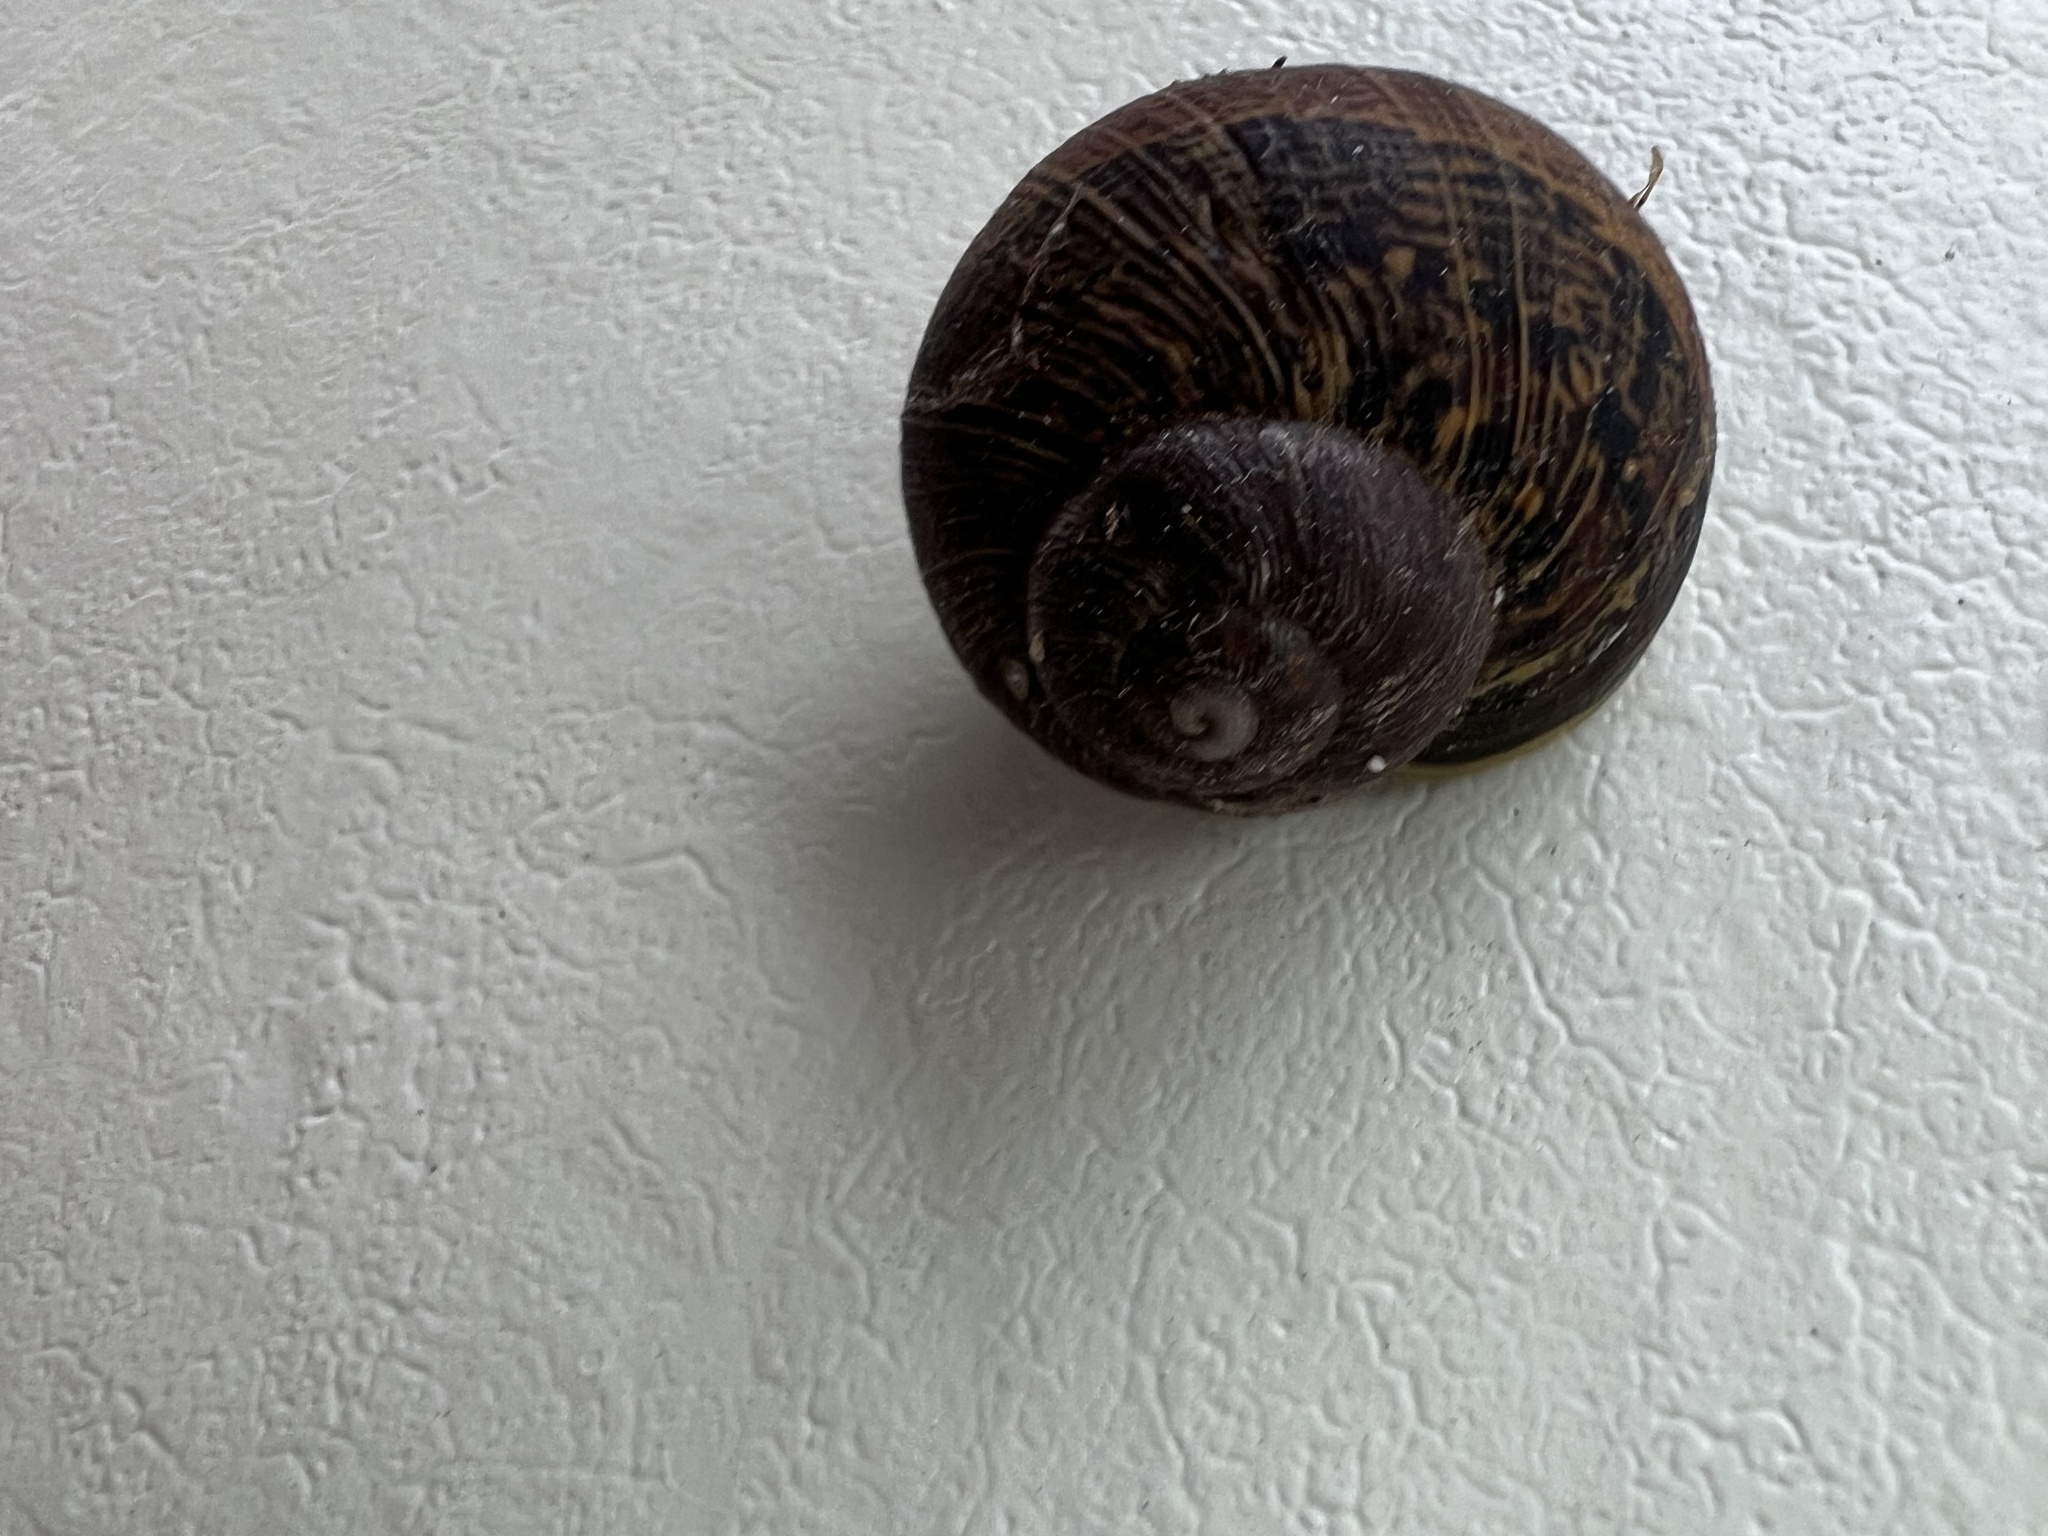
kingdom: Animalia
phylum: Mollusca
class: Gastropoda
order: Stylommatophora
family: Helicidae
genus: Cornu
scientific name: Cornu aspersum
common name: Brown garden snail
